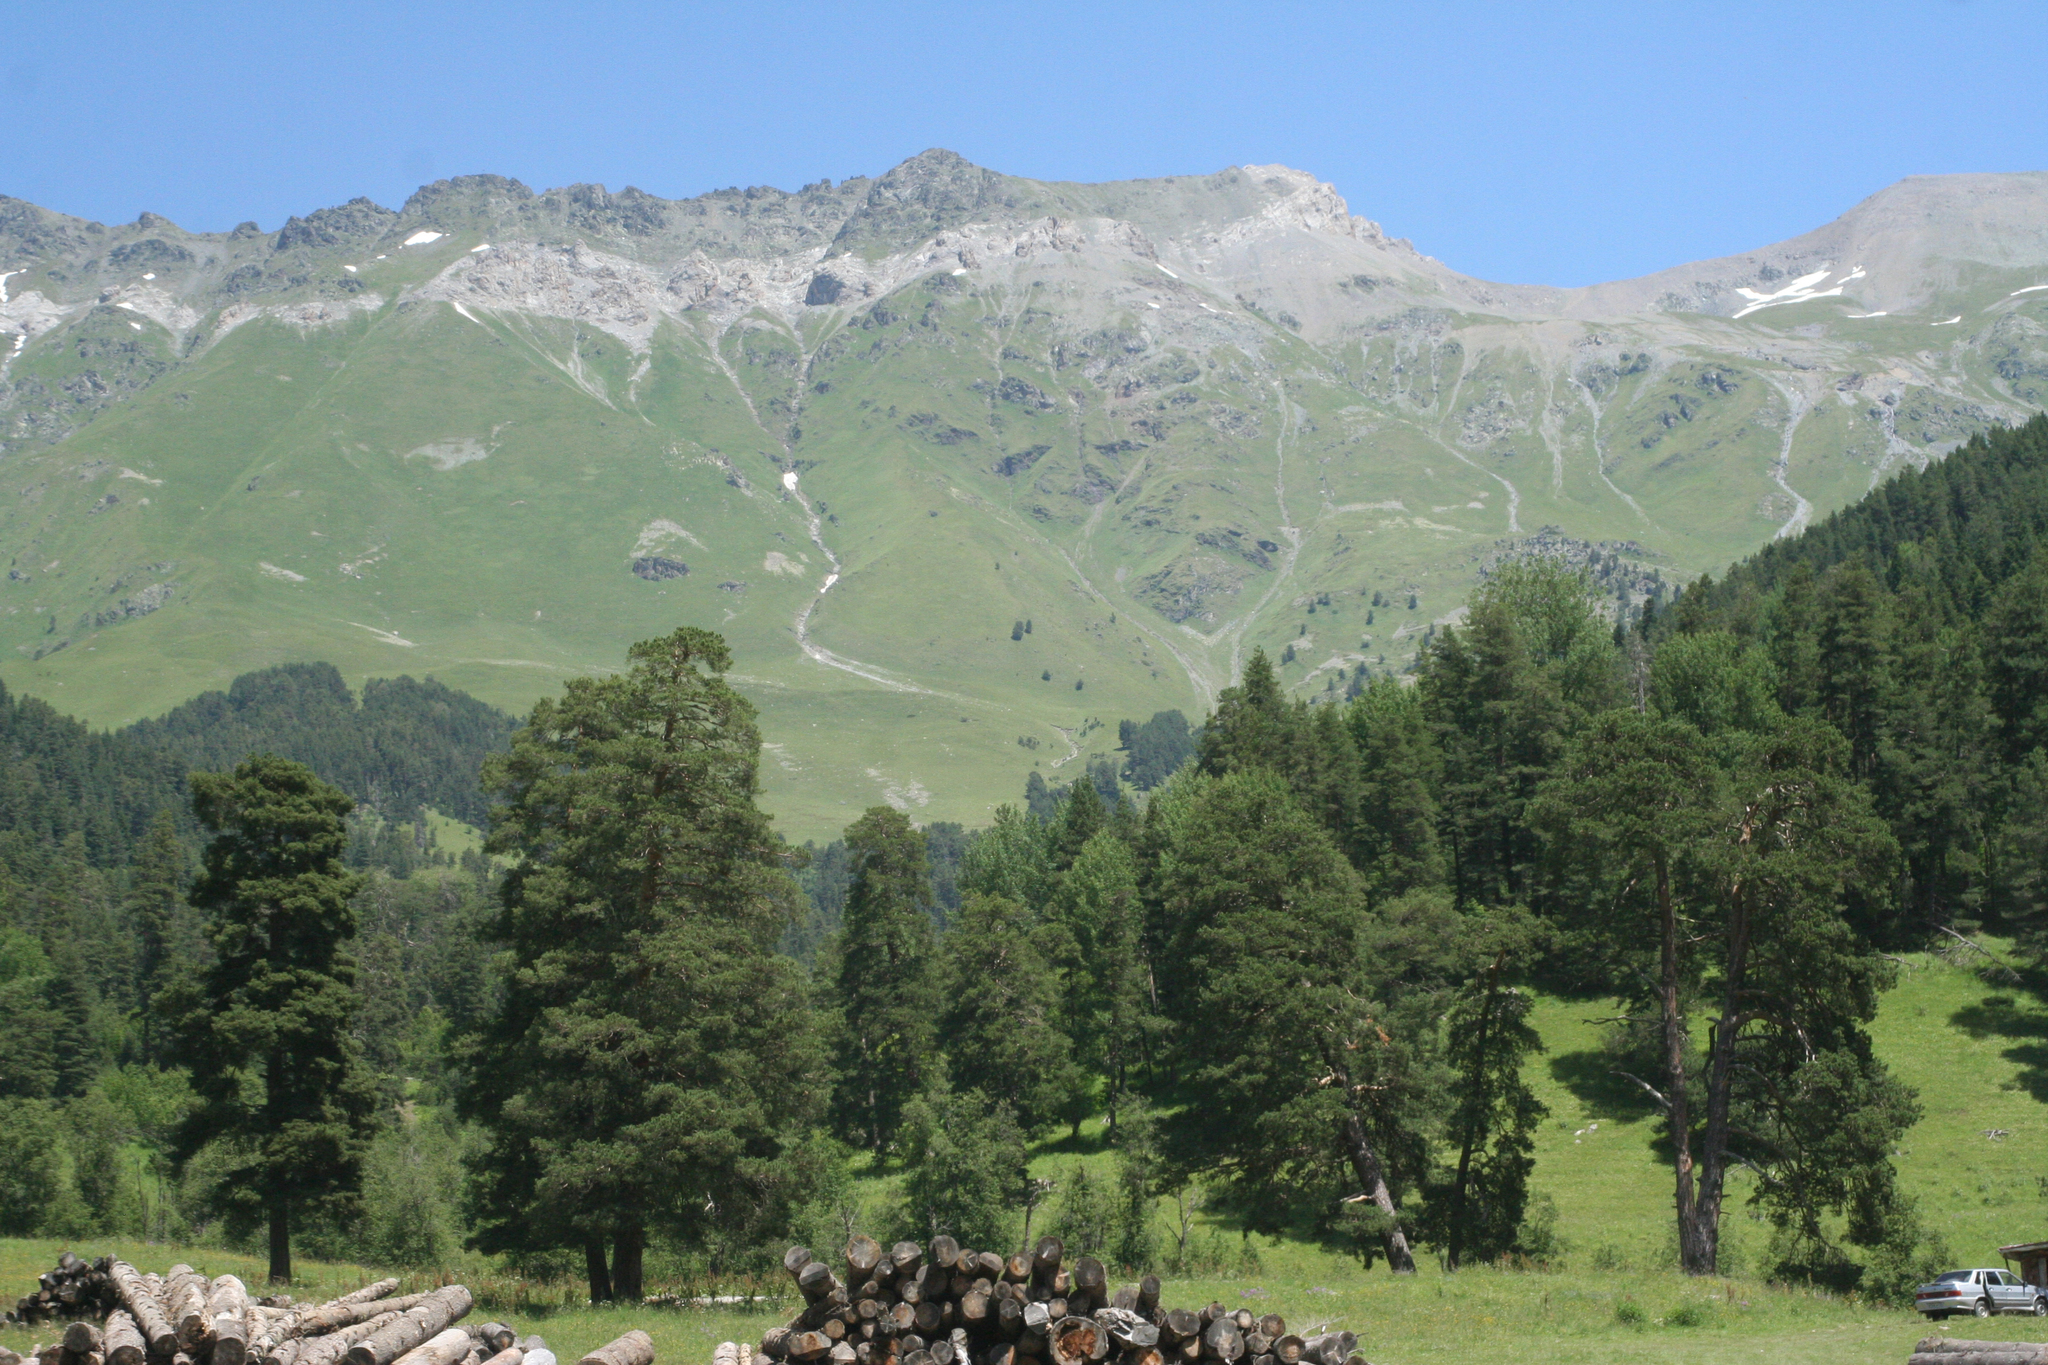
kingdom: Plantae
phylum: Tracheophyta
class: Pinopsida
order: Pinales
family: Pinaceae
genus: Pinus
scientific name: Pinus sylvestris
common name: Scots pine
